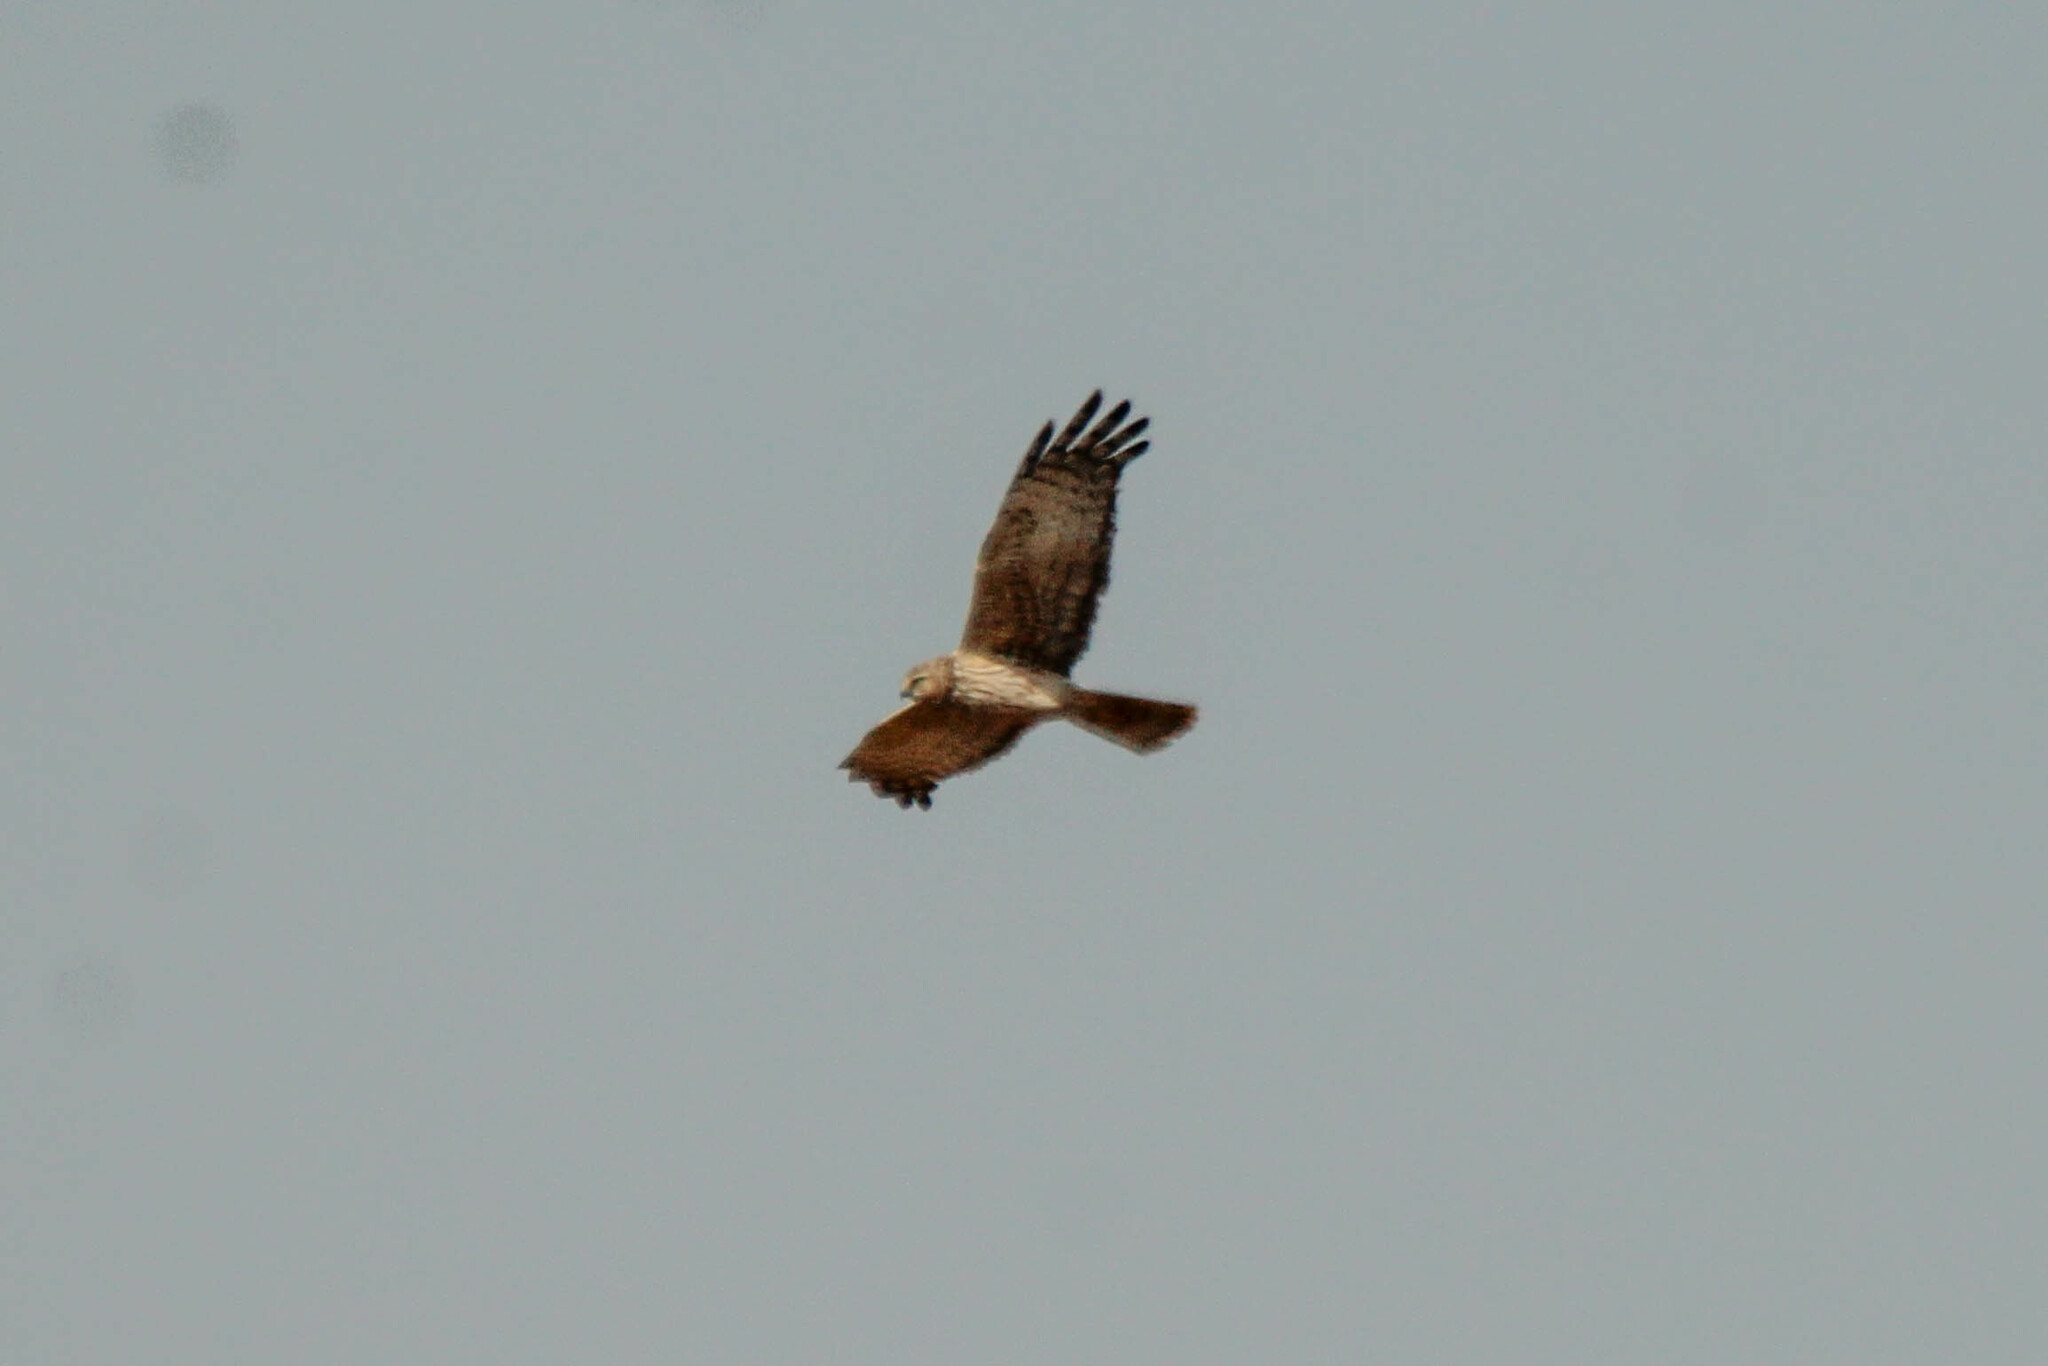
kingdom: Animalia
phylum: Chordata
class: Aves
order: Accipitriformes
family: Accipitridae
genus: Circus
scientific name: Circus melanoleucos
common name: Pied harrier
